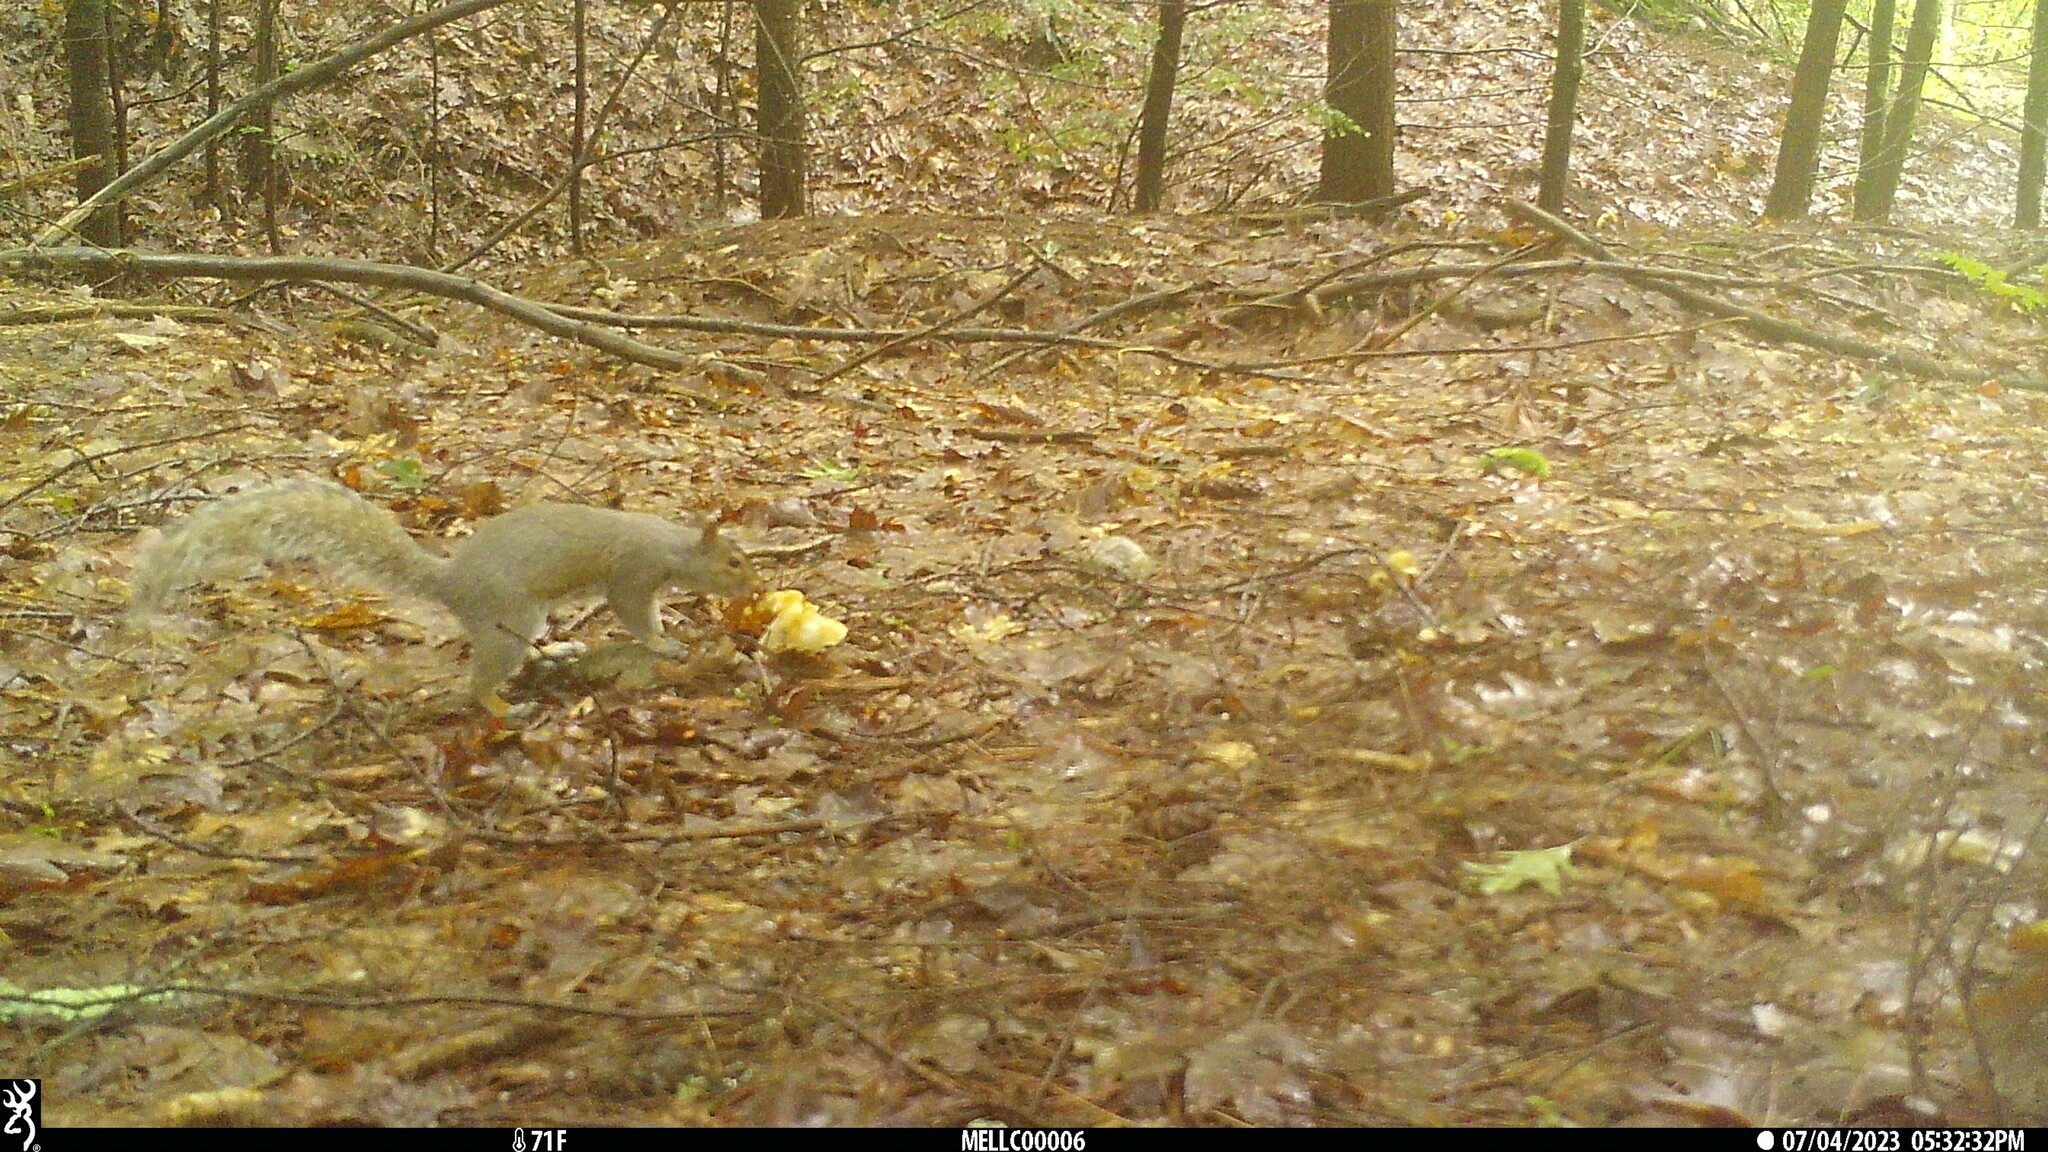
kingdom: Animalia
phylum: Chordata
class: Mammalia
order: Rodentia
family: Sciuridae
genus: Sciurus
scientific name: Sciurus carolinensis
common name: Eastern gray squirrel
